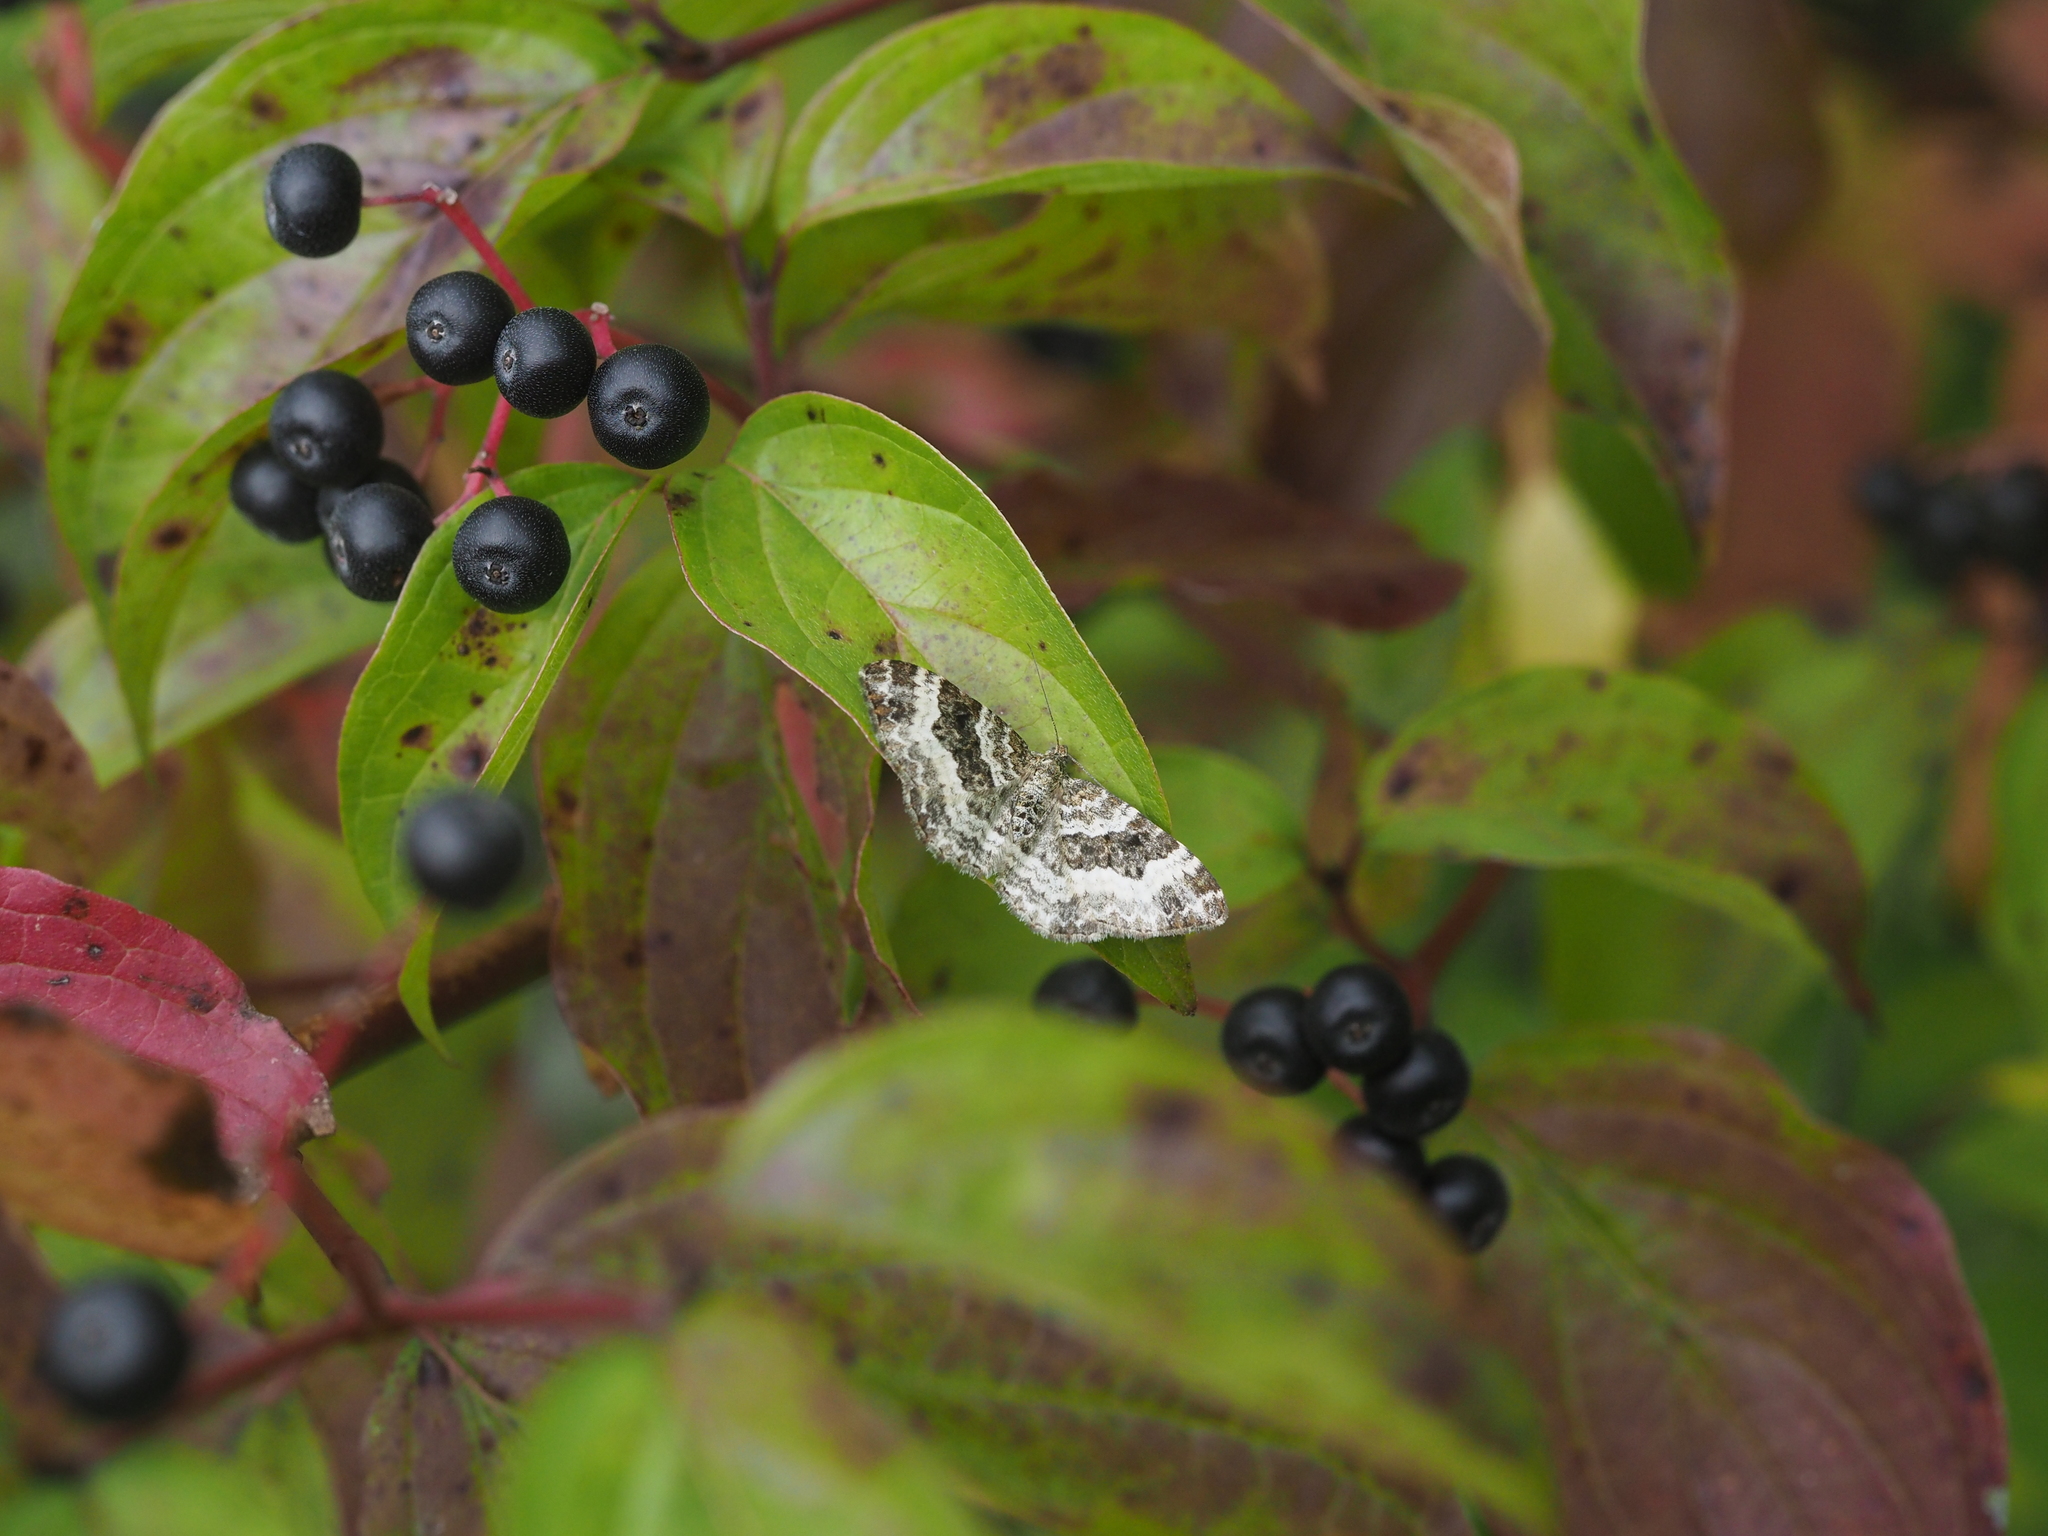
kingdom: Animalia
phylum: Arthropoda
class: Insecta
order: Lepidoptera
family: Geometridae
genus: Epirrhoe
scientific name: Epirrhoe alternata
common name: Common carpet
